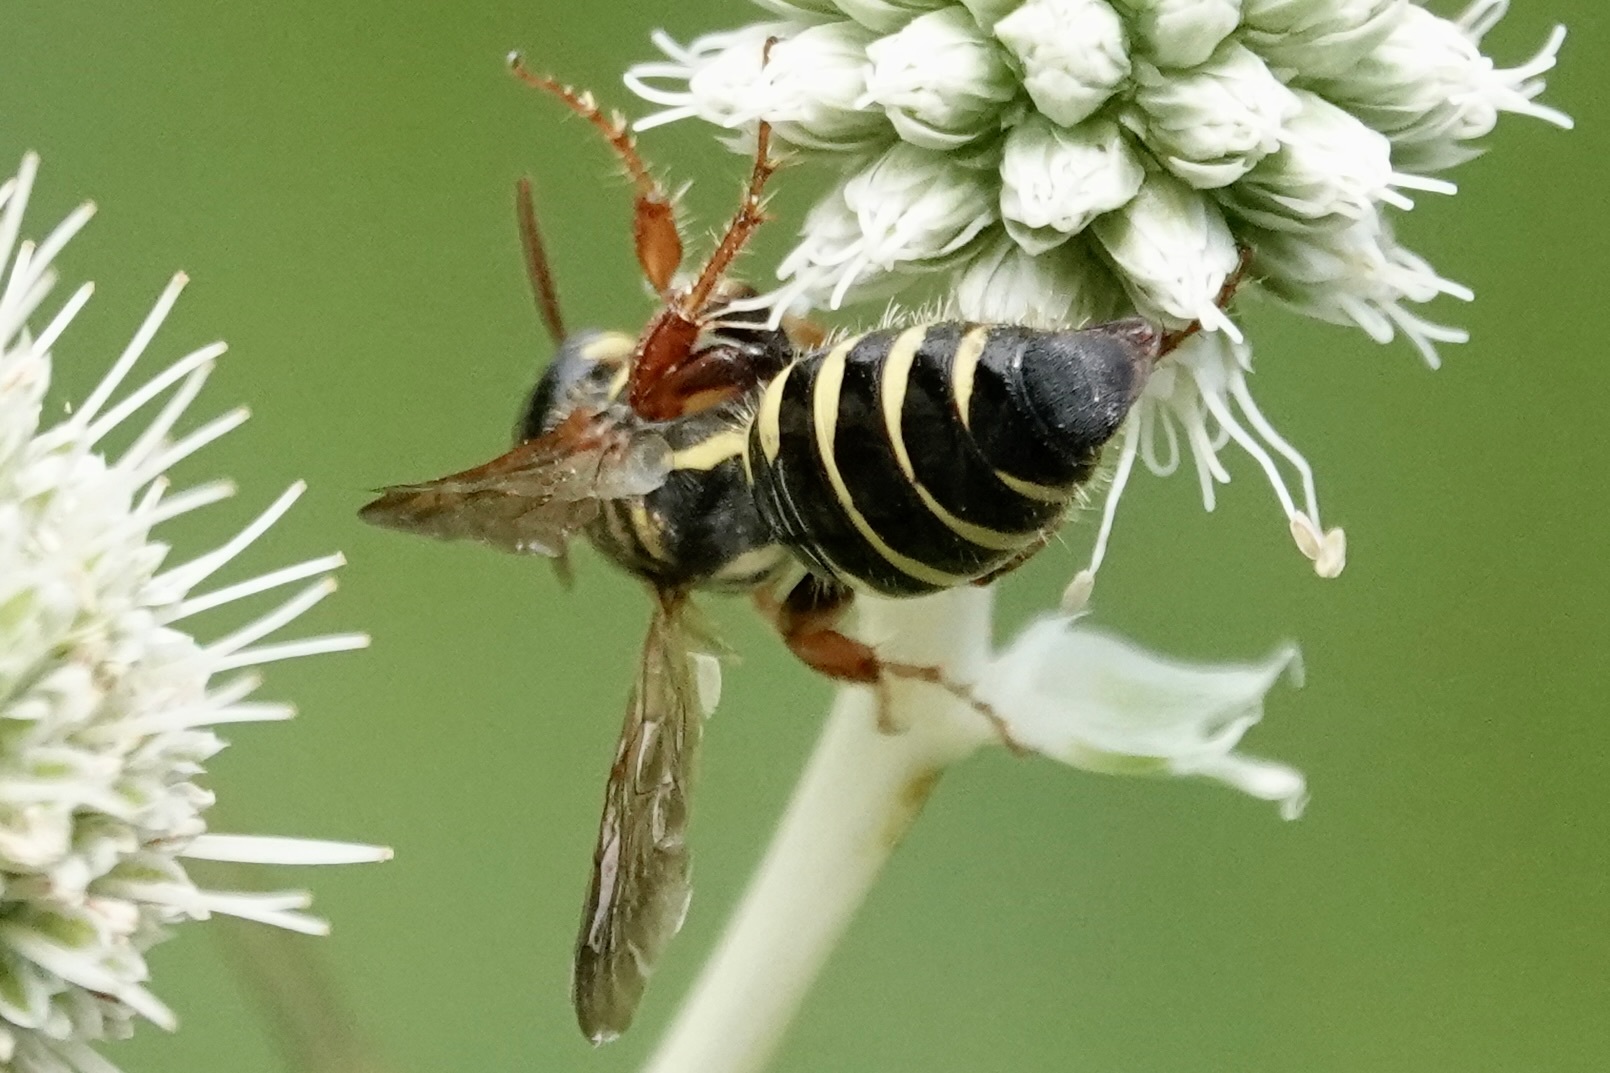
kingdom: Animalia
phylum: Arthropoda
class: Insecta
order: Hymenoptera
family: Tiphiidae
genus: Myzinum
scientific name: Myzinum quinquecinctum
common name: Five-banded thynnid wasp
